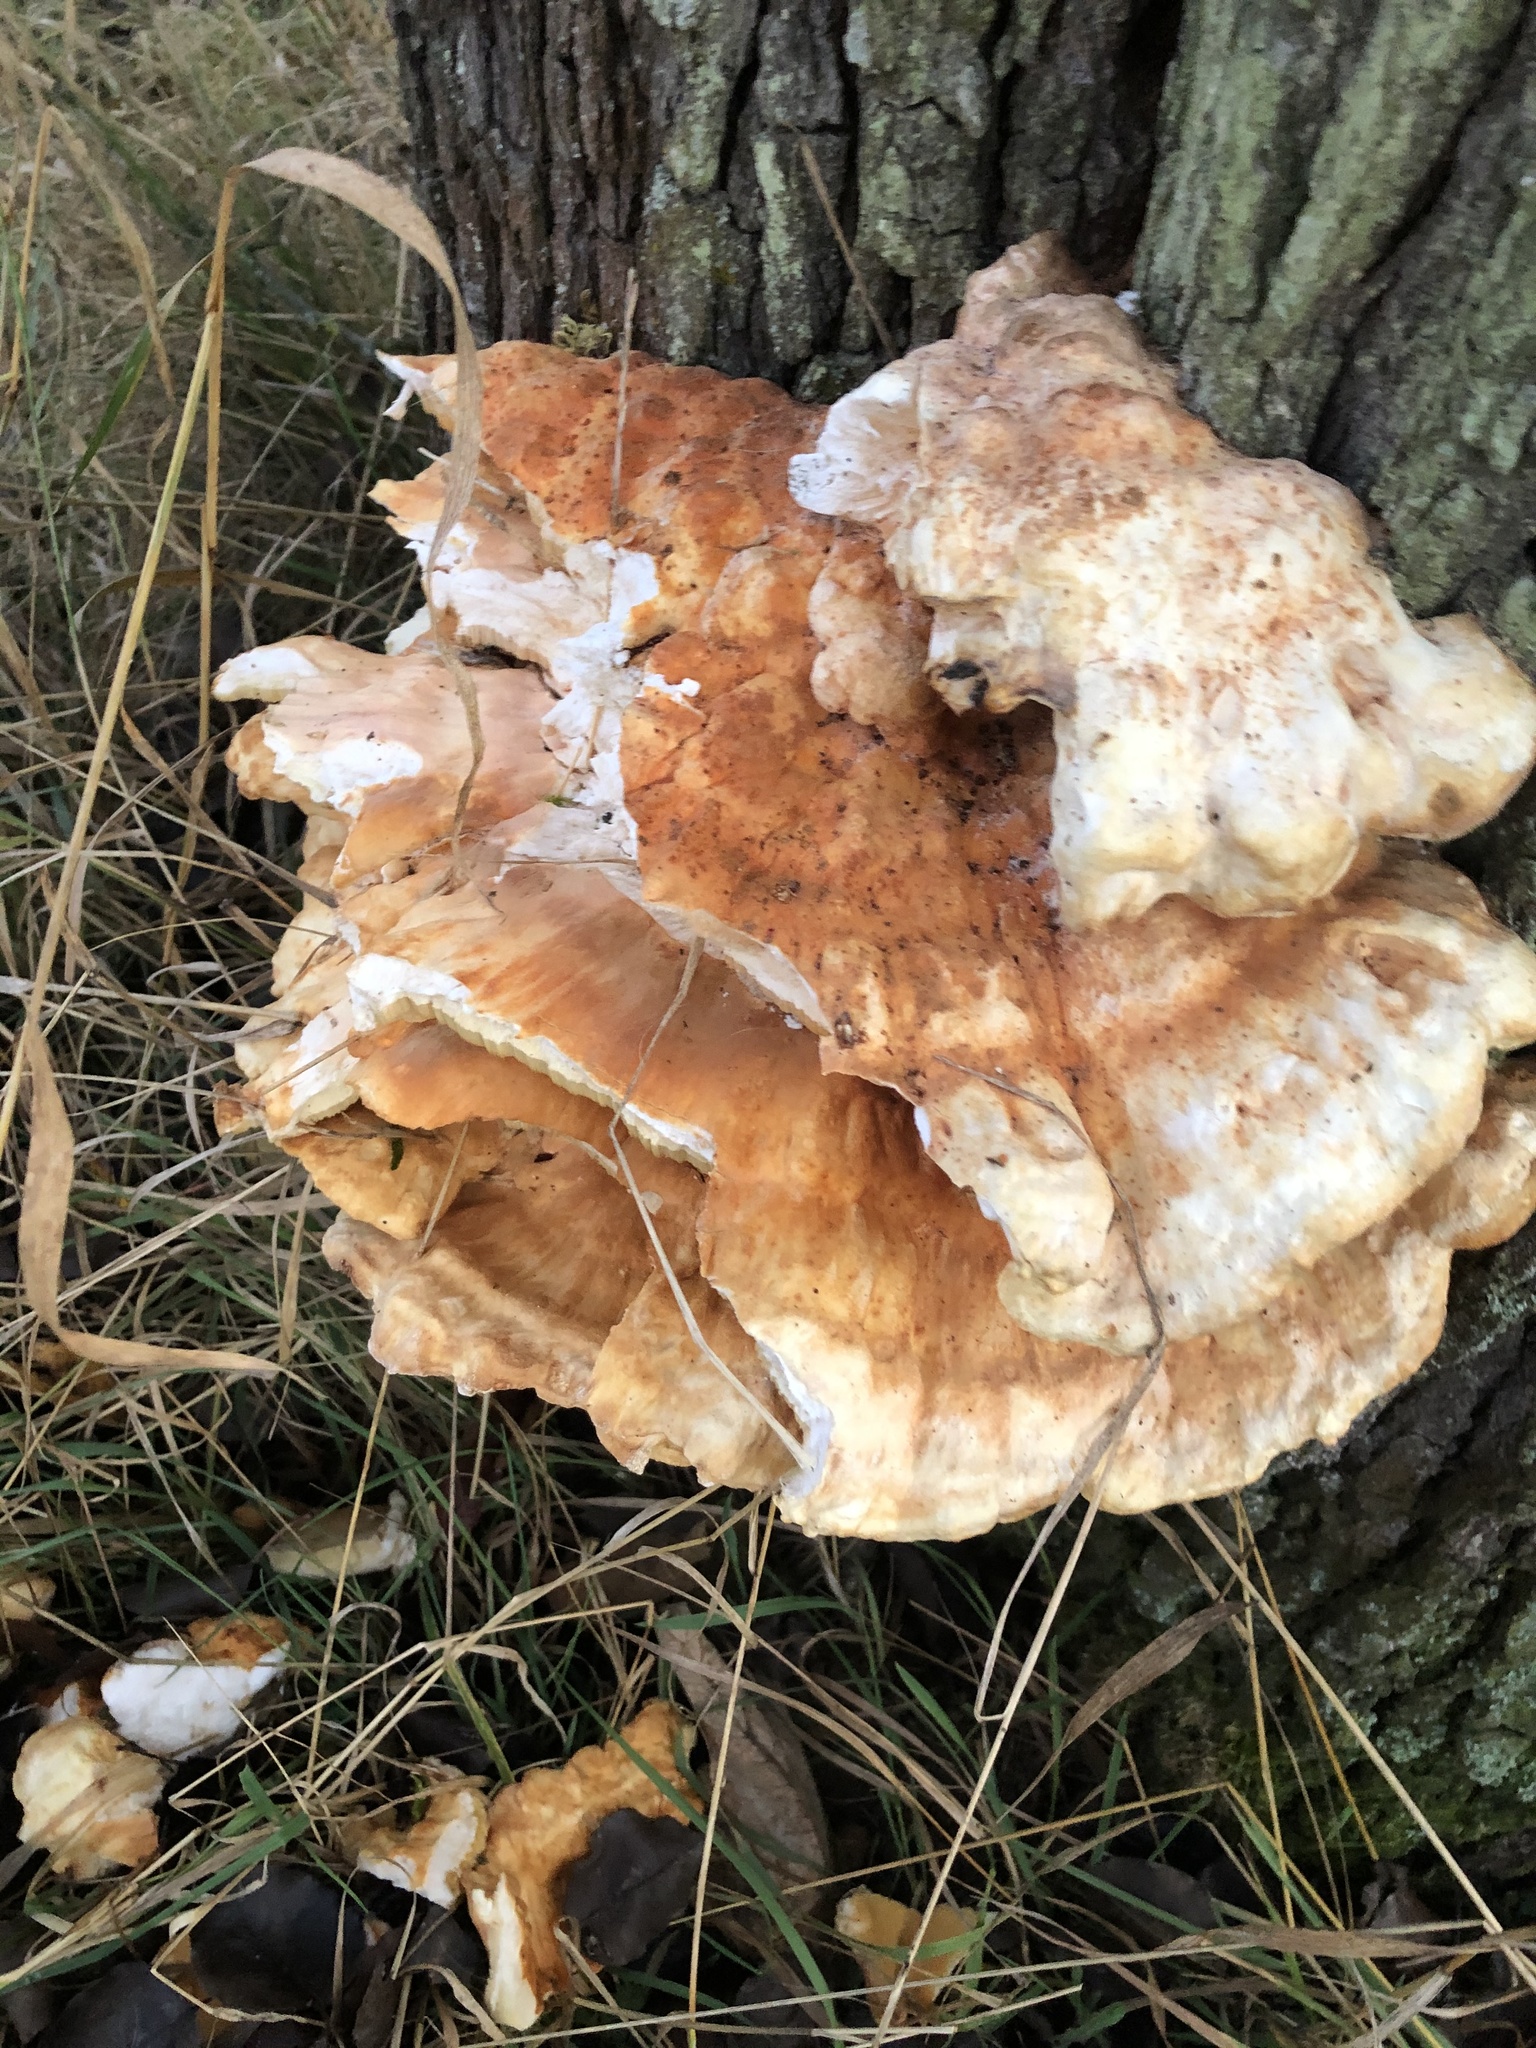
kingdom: Fungi
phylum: Basidiomycota
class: Agaricomycetes
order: Polyporales
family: Laetiporaceae
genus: Laetiporus
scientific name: Laetiporus sulphureus
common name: Chicken of the woods
